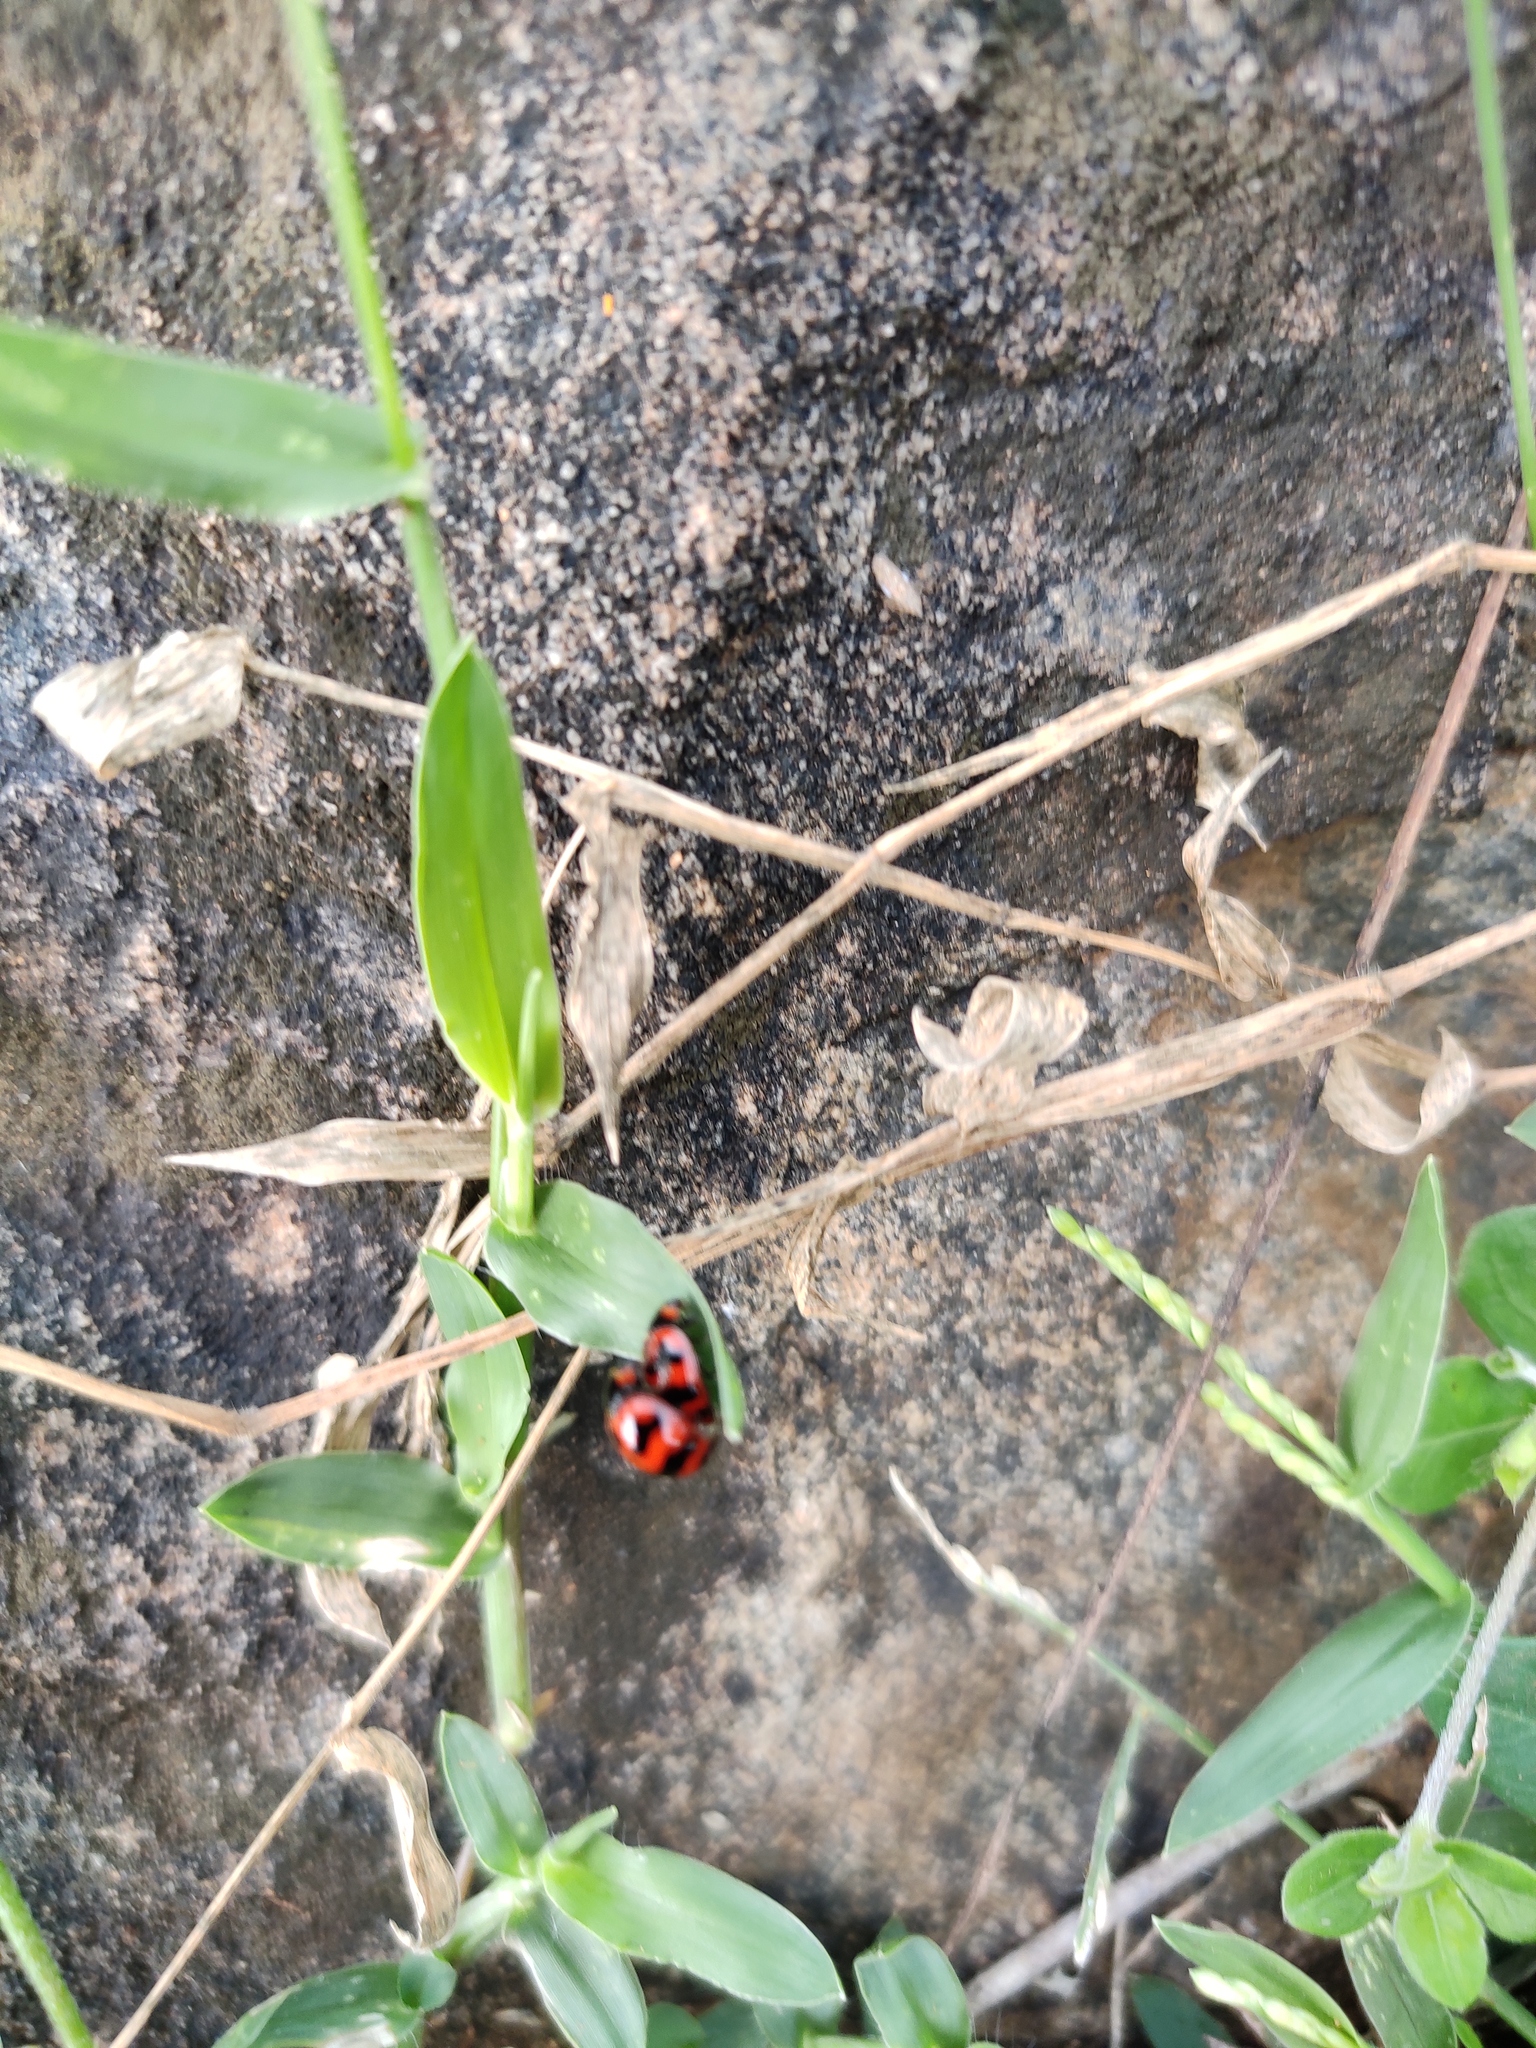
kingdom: Animalia
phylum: Arthropoda
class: Insecta
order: Coleoptera
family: Coccinellidae
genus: Coccinella
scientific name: Coccinella transversalis
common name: Transverse lady beetle
